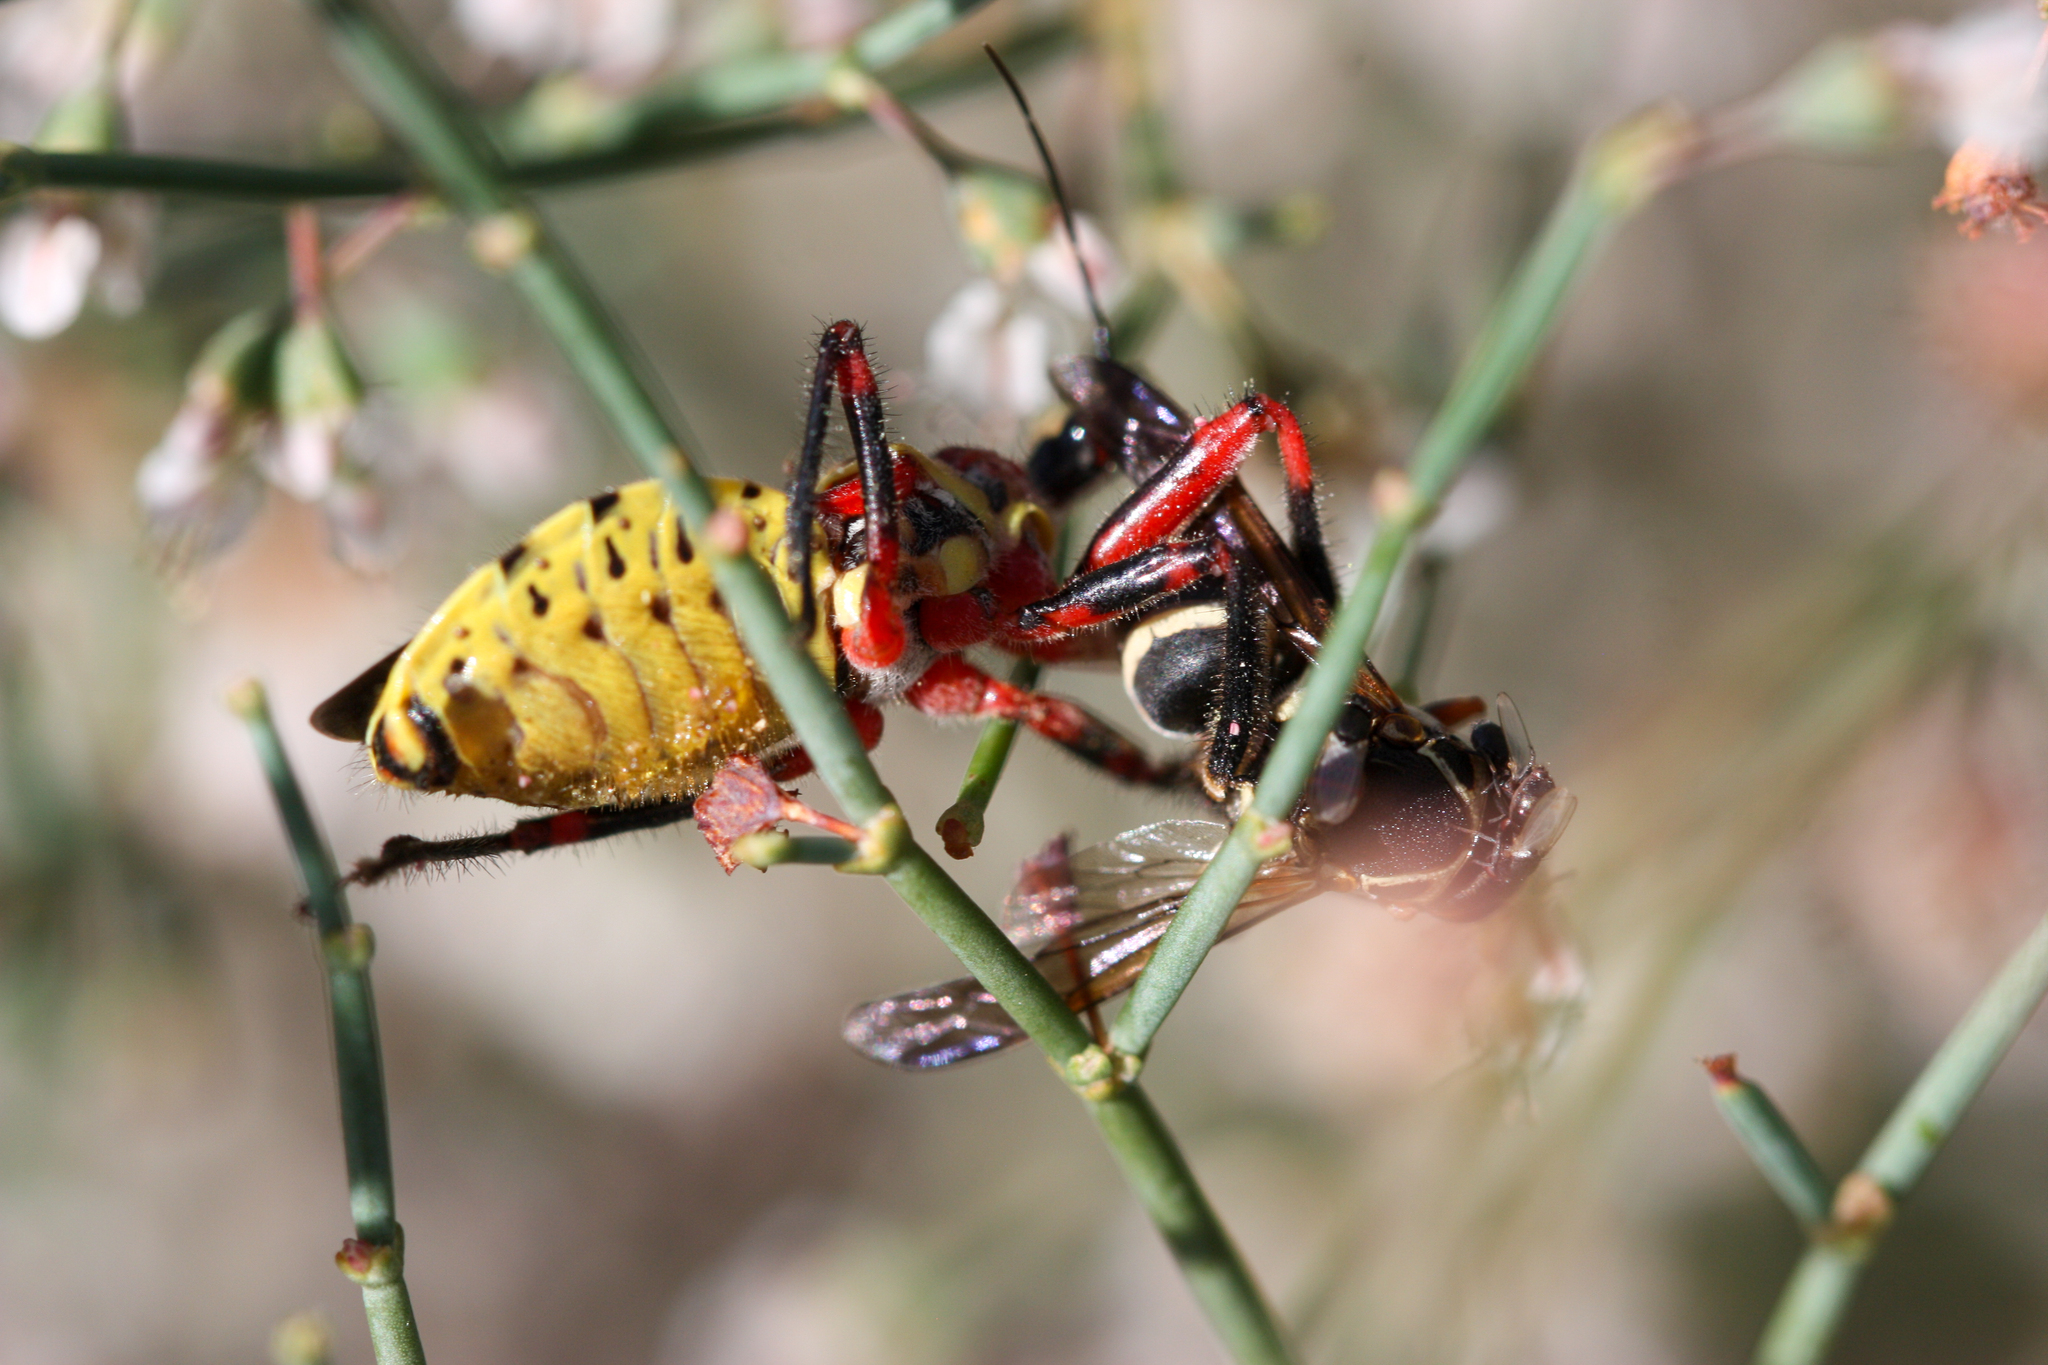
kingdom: Animalia
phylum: Arthropoda
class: Insecta
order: Hemiptera
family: Reduviidae
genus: Apiomerus
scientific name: Apiomerus flaviventris
